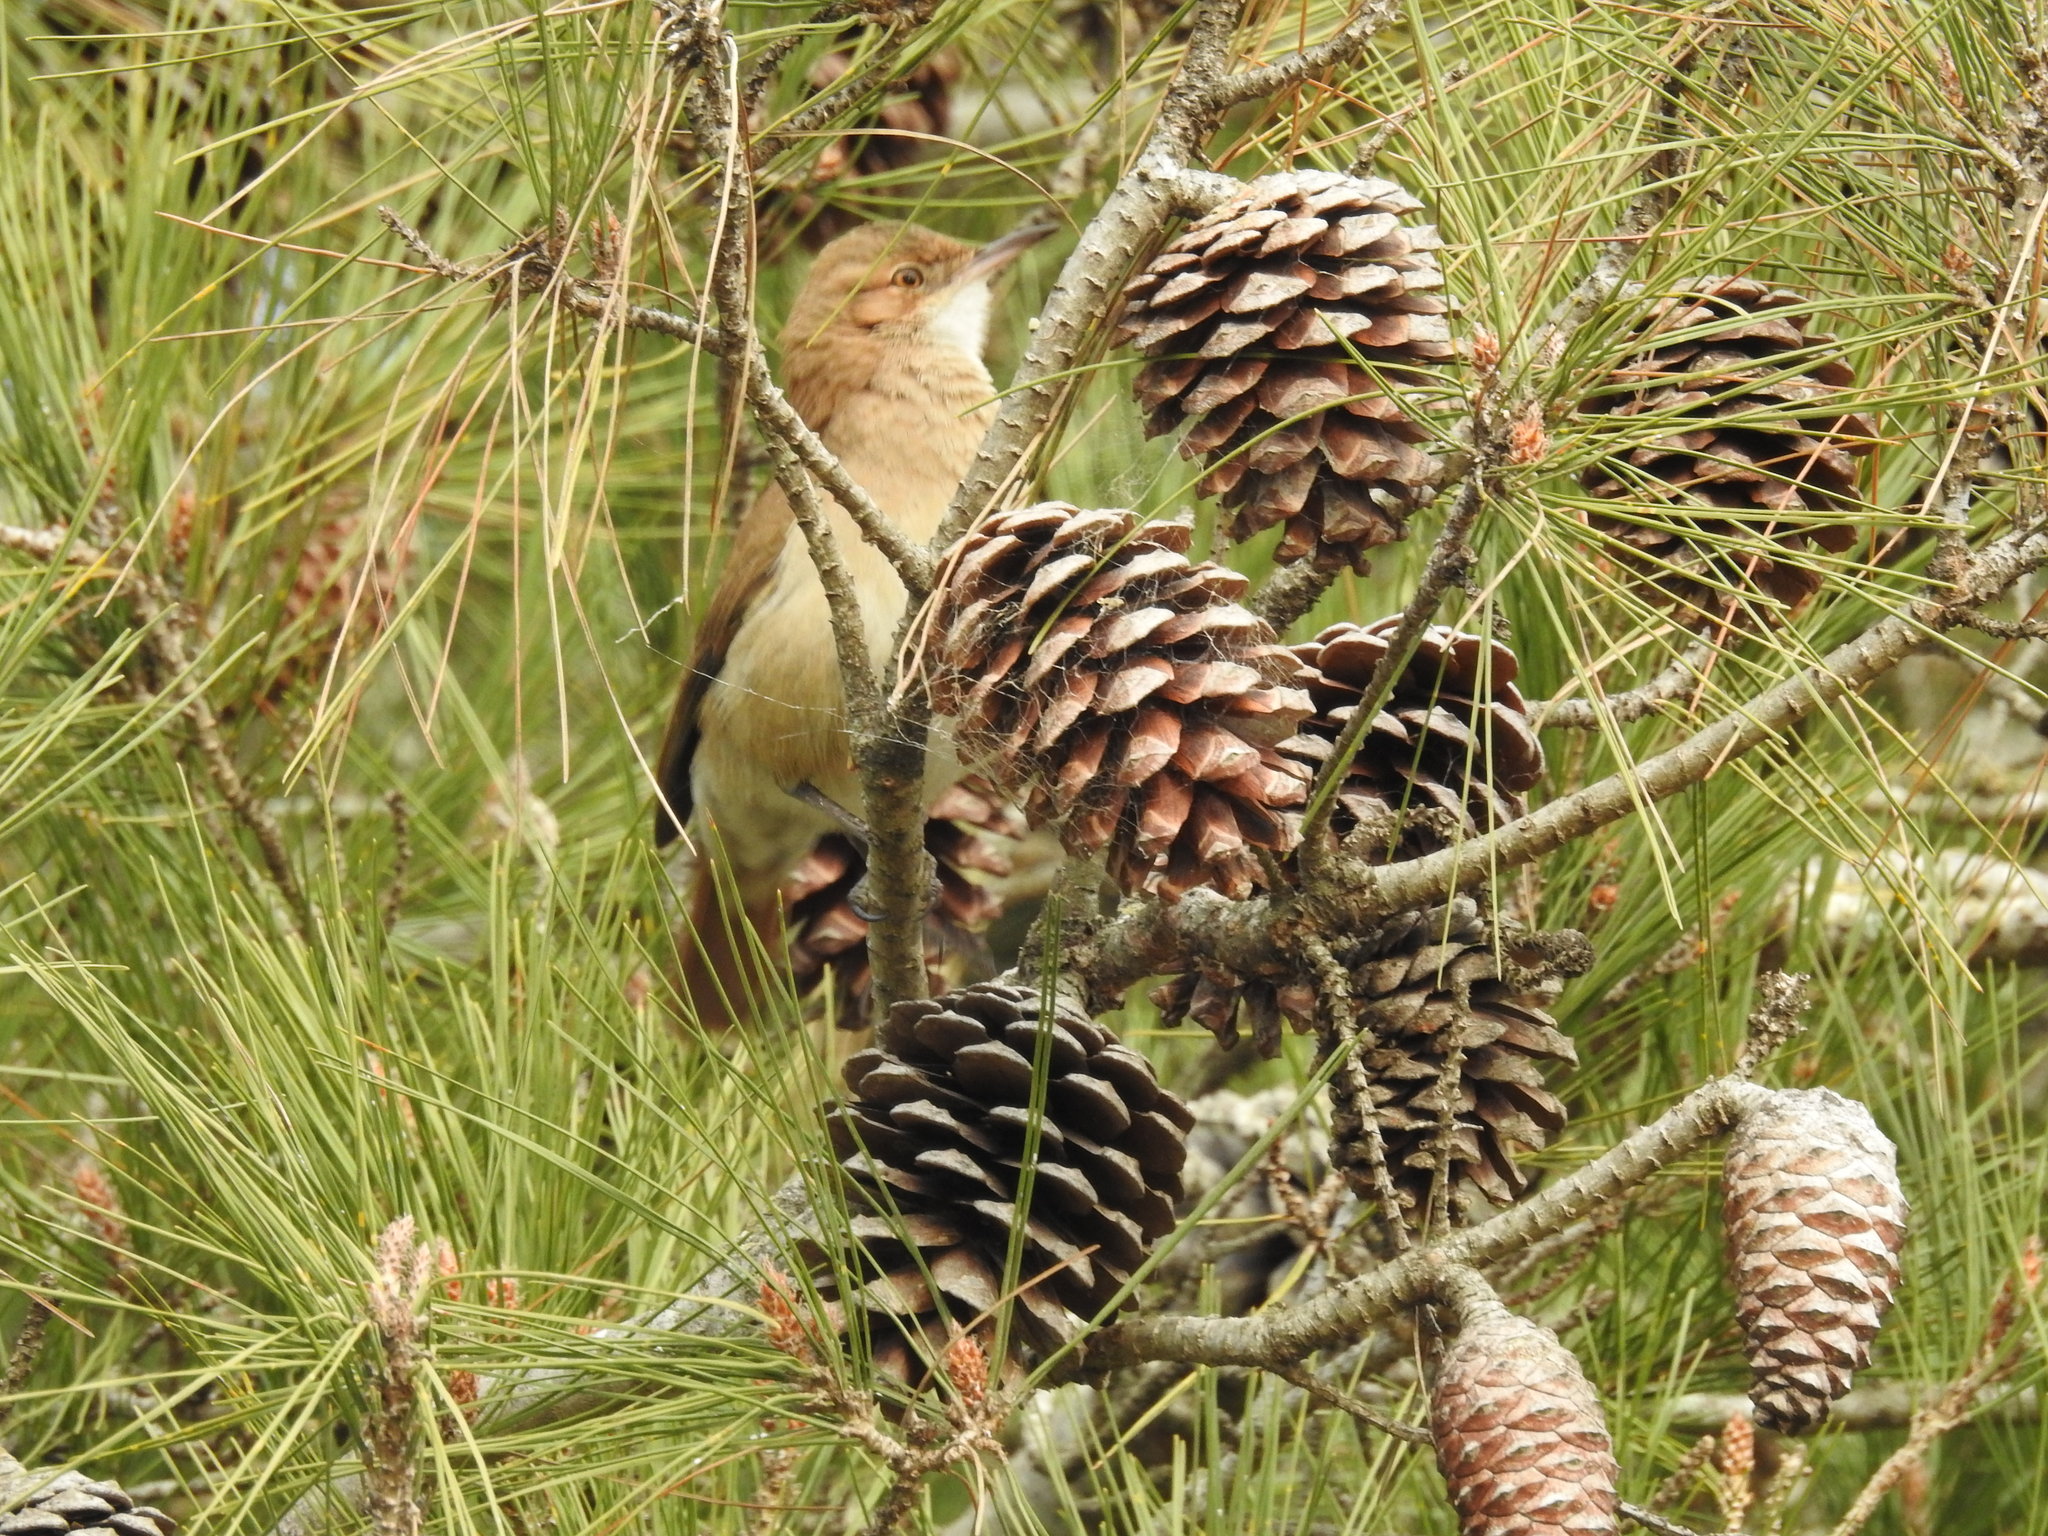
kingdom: Animalia
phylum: Chordata
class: Aves
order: Passeriformes
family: Furnariidae
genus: Furnarius
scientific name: Furnarius rufus
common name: Rufous hornero
